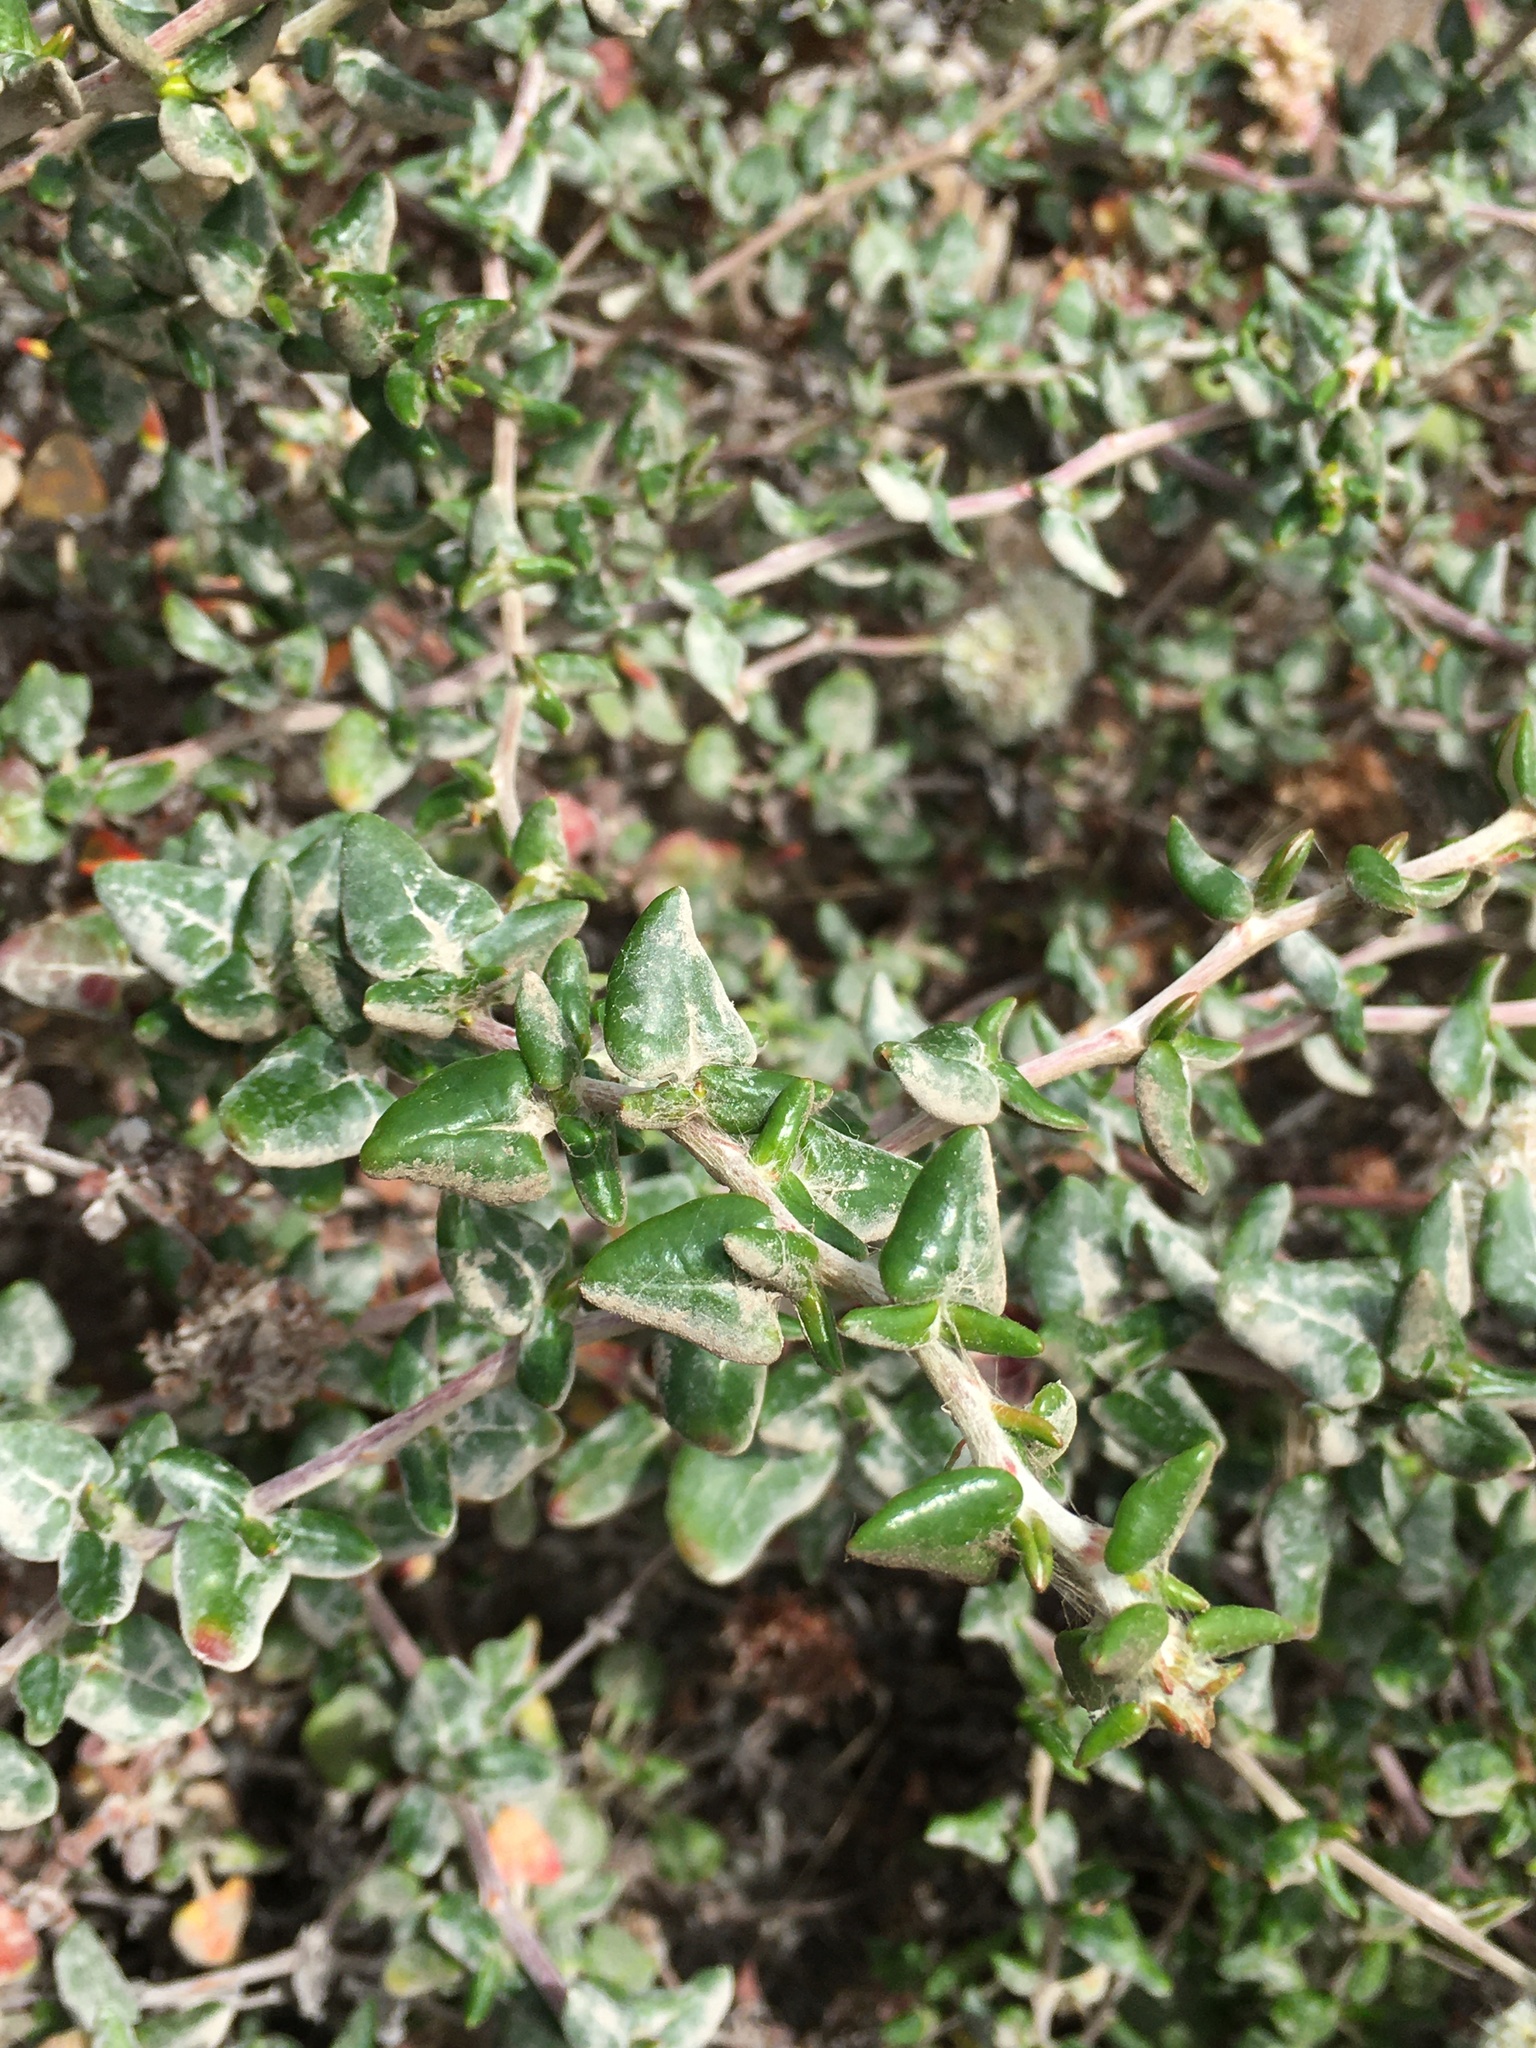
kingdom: Plantae
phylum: Tracheophyta
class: Magnoliopsida
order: Caryophyllales
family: Polygonaceae
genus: Eriogonum
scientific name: Eriogonum parvifolium
